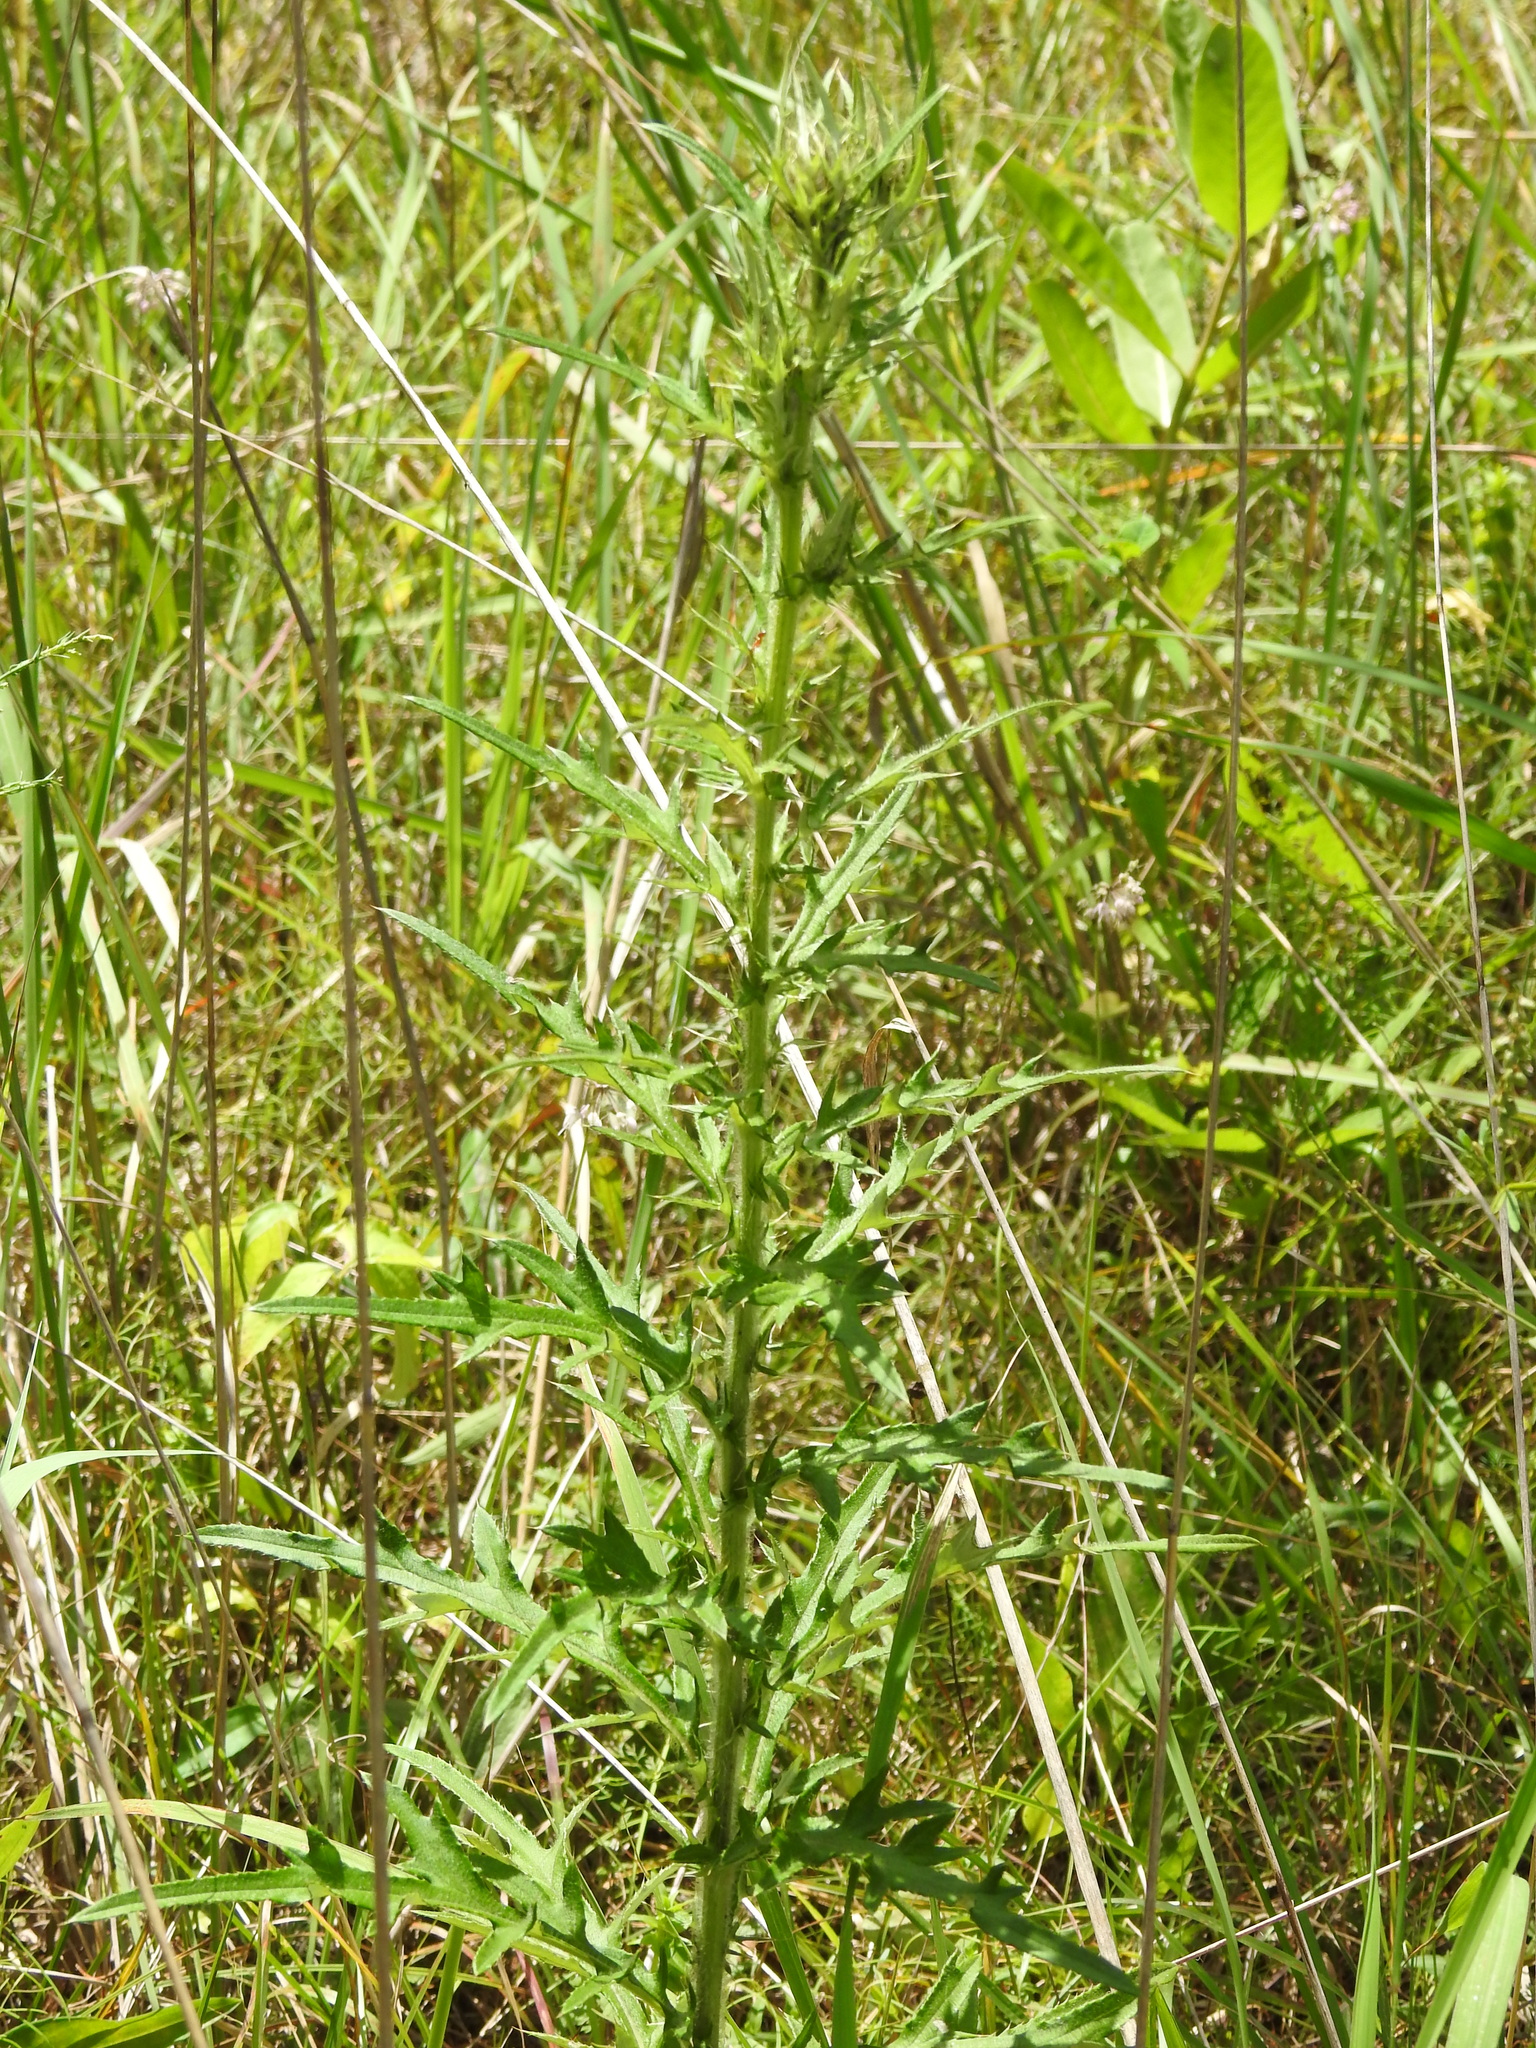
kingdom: Plantae
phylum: Tracheophyta
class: Magnoliopsida
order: Asterales
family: Asteraceae
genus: Cirsium
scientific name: Cirsium altissimum
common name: Roadside thistle
